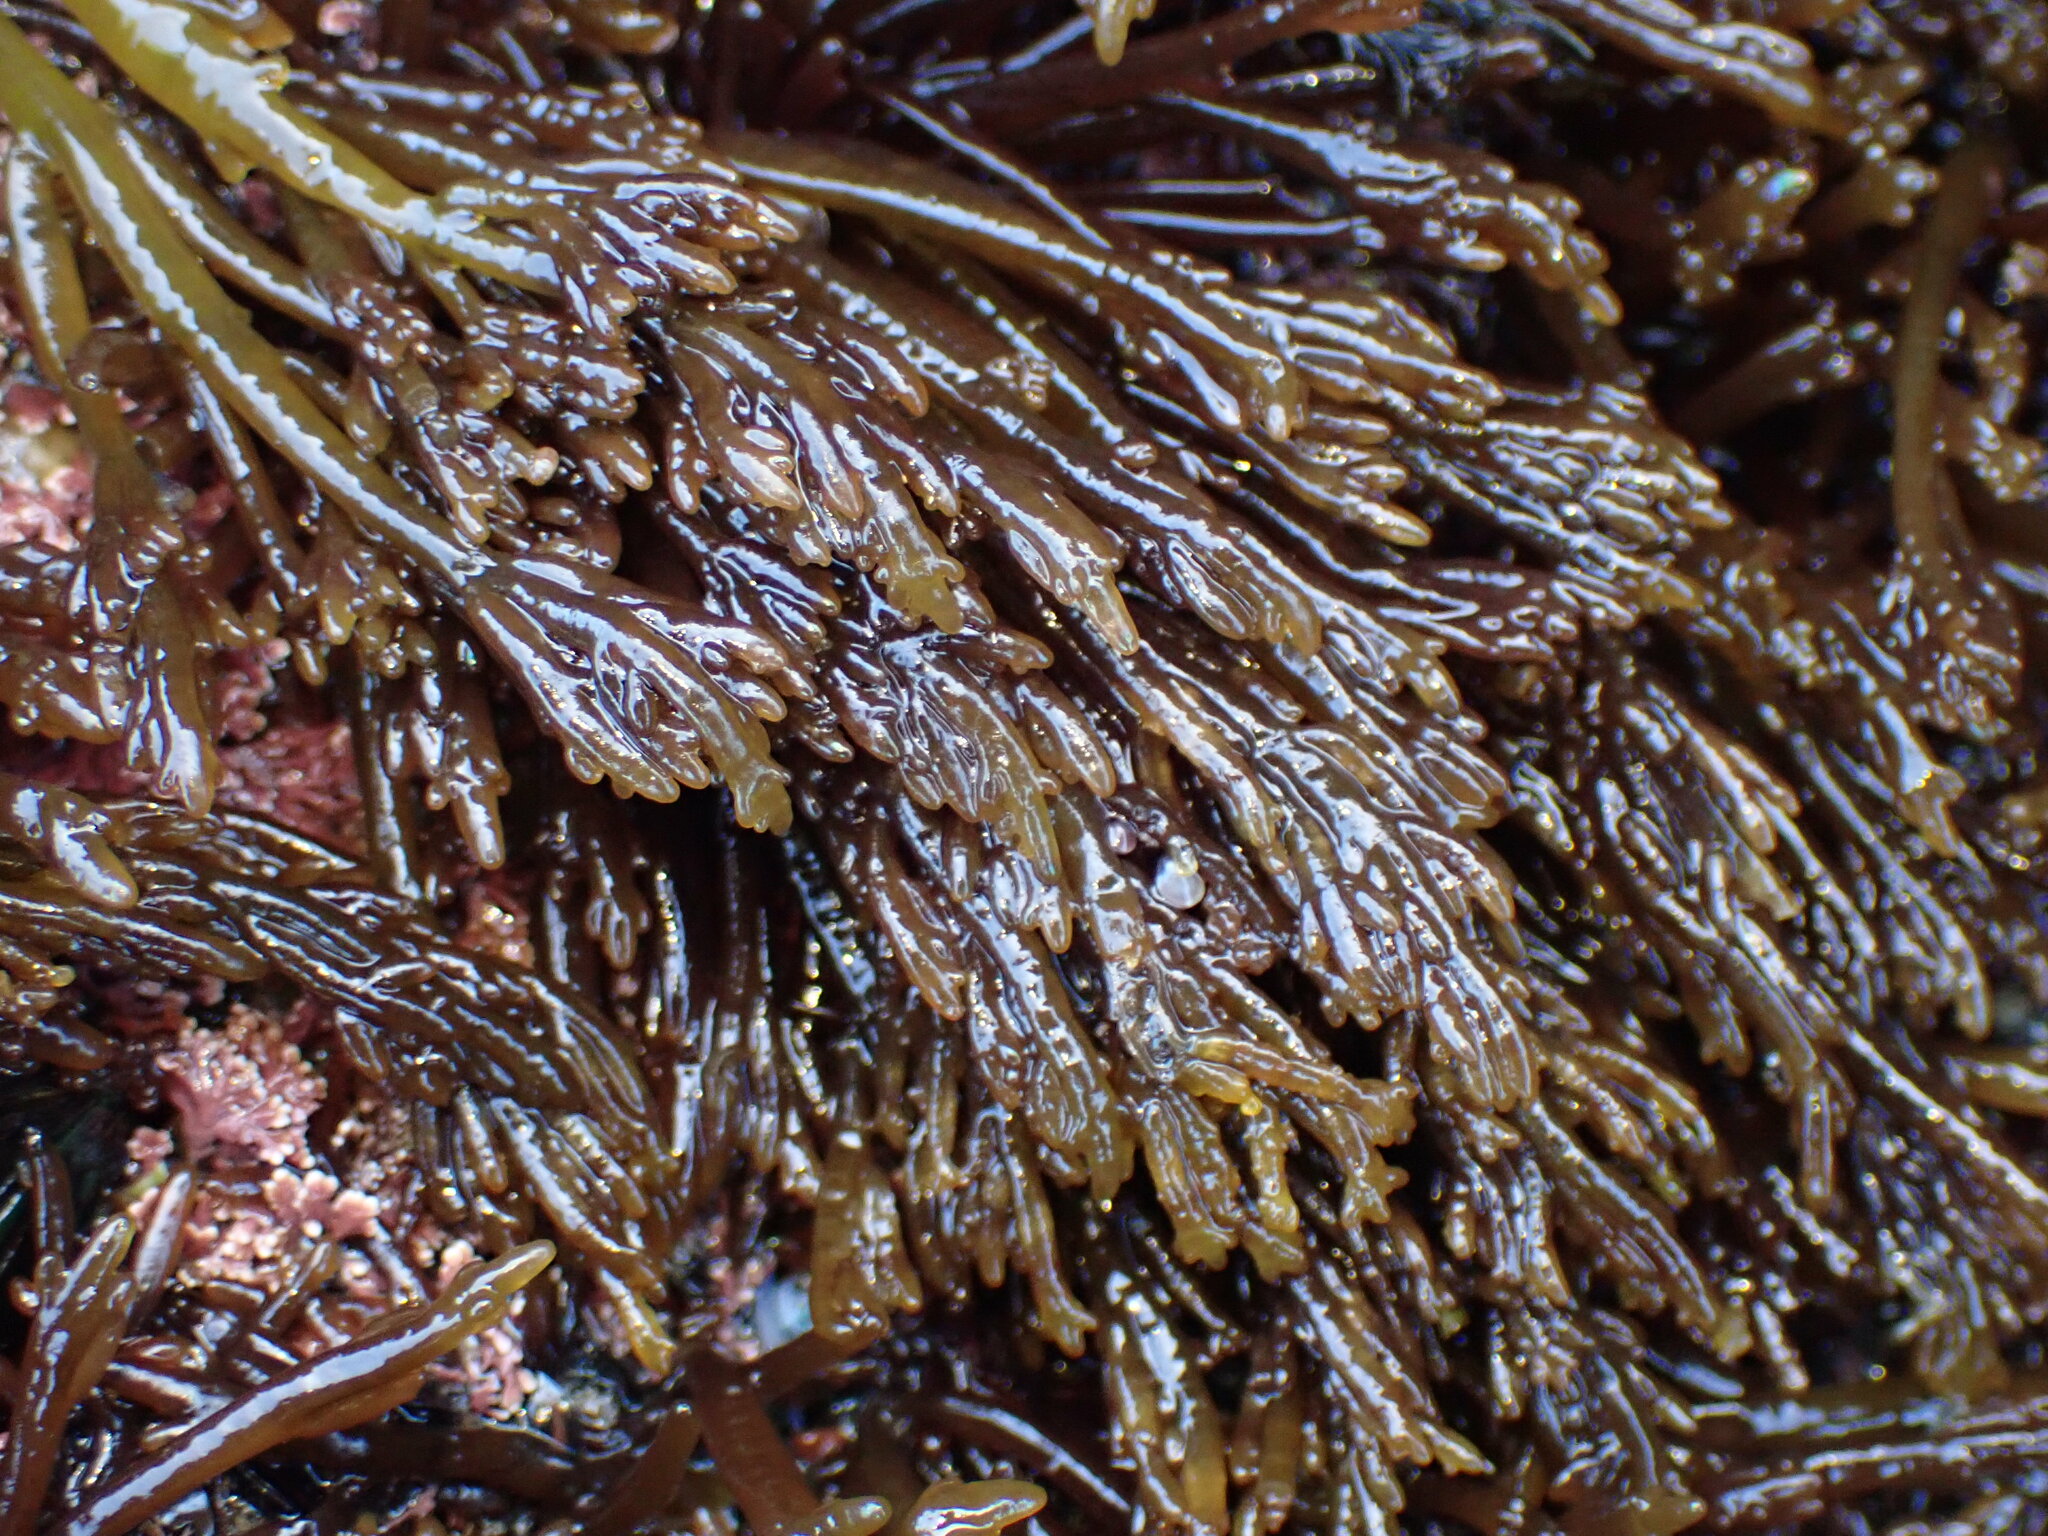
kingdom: Plantae
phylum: Rhodophyta
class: Florideophyceae
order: Rhodymeniales
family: Champiaceae
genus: Champia
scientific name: Champia novae-zelandiae
